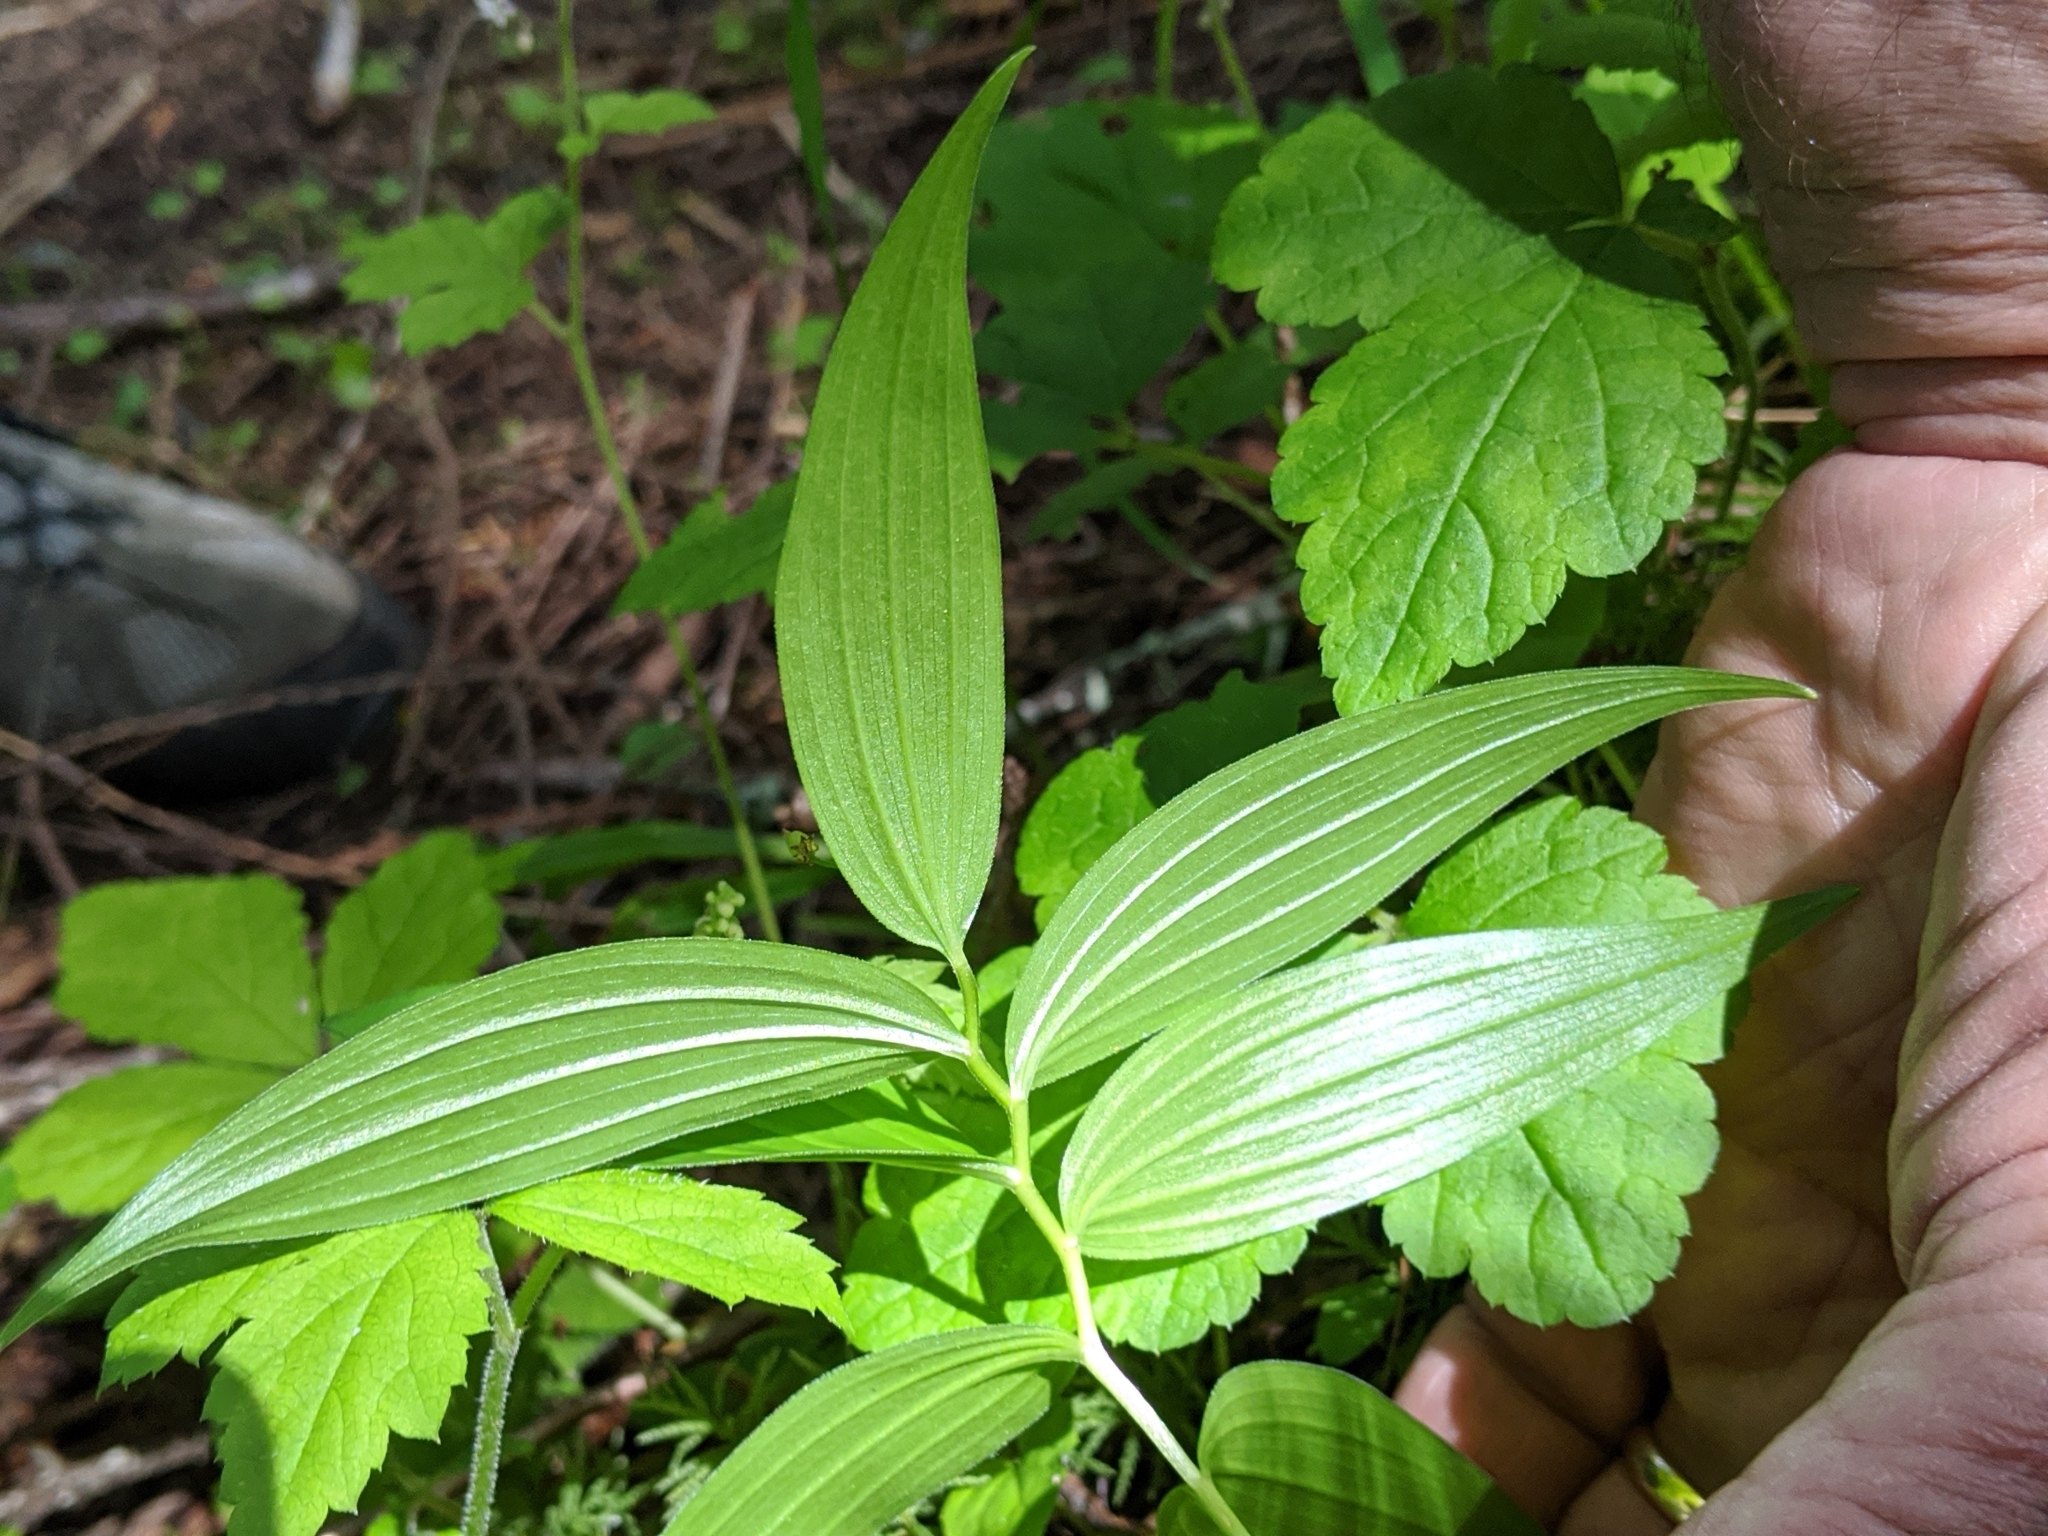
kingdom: Plantae
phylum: Tracheophyta
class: Liliopsida
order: Asparagales
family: Asparagaceae
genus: Maianthemum
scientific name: Maianthemum stellatum
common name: Little false solomon's seal
